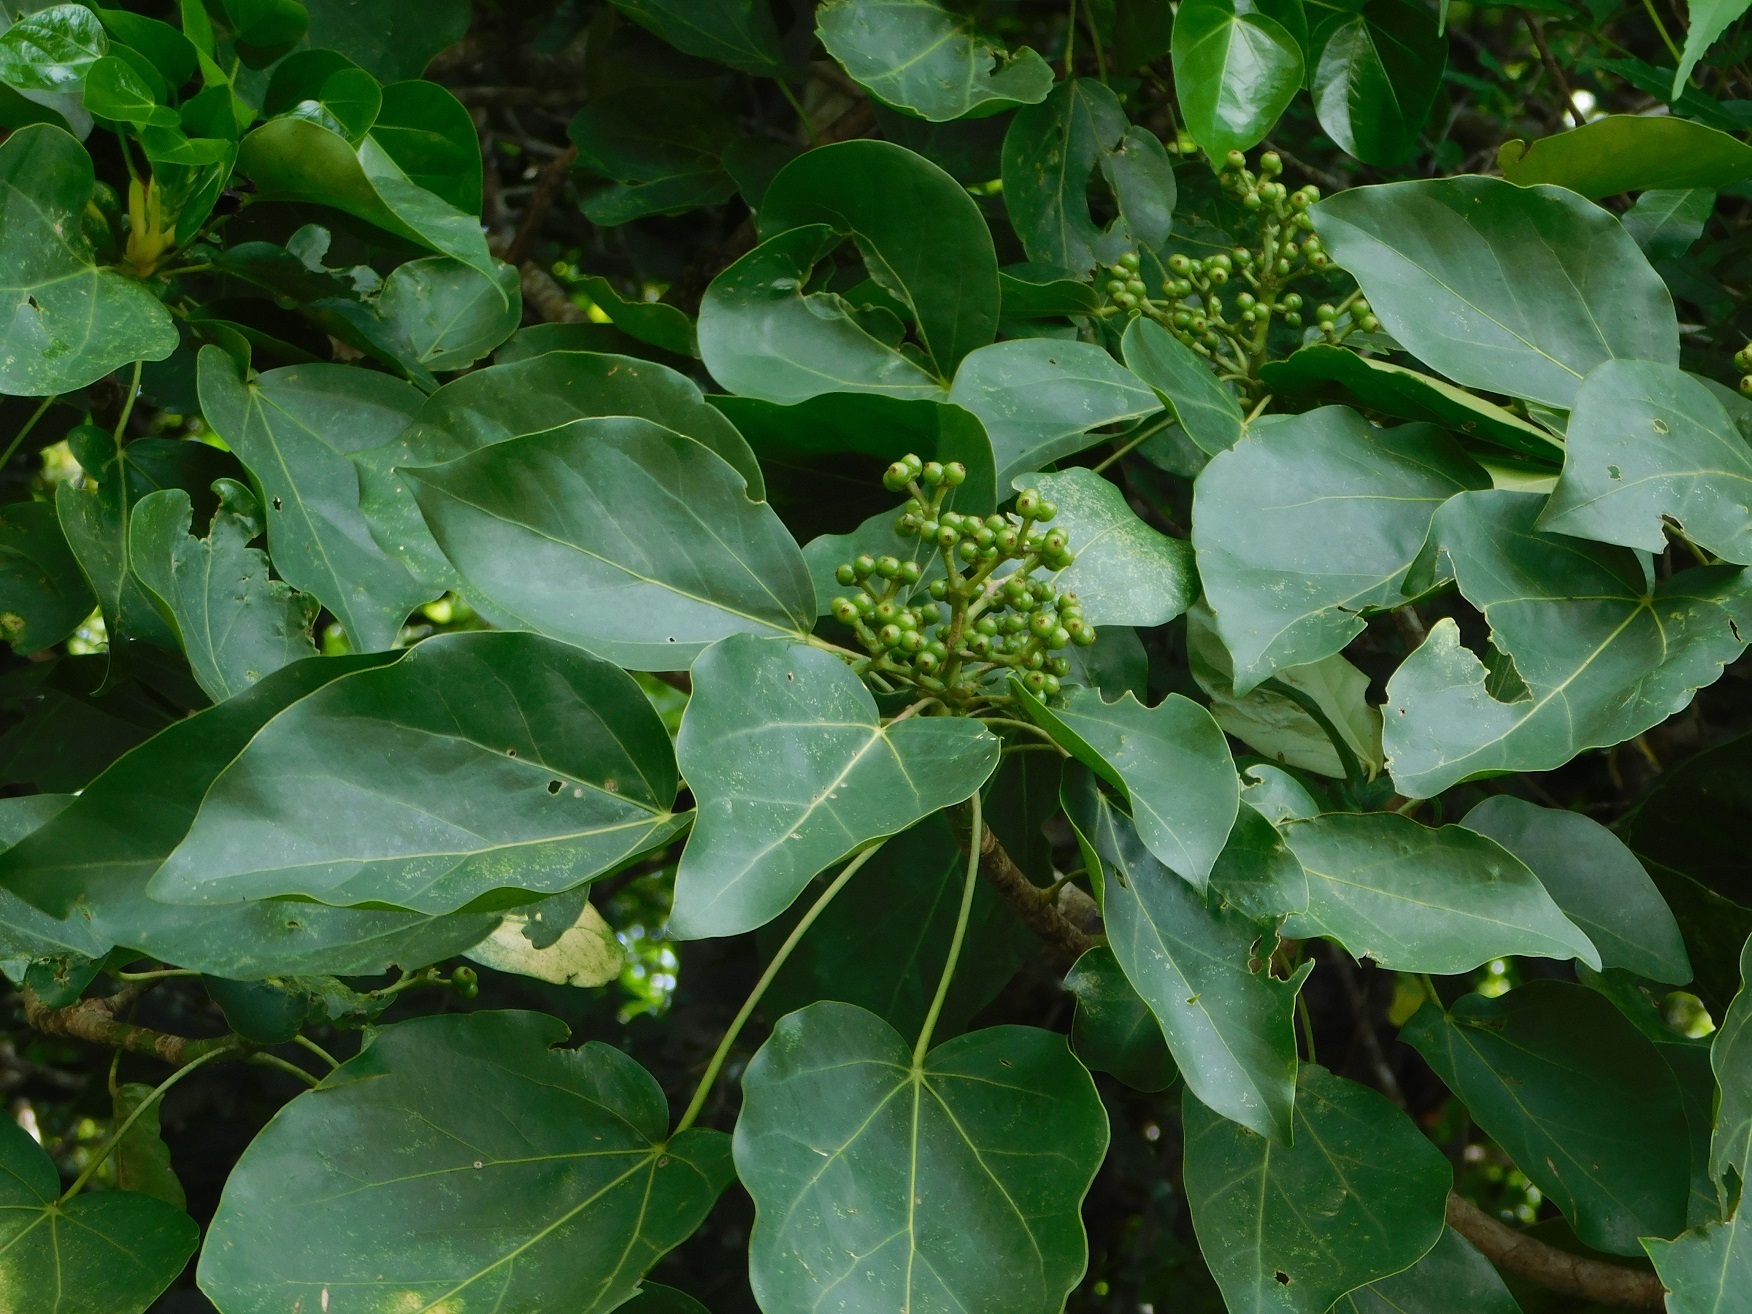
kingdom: Plantae
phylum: Tracheophyta
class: Magnoliopsida
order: Apiales
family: Araliaceae
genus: Oreopanax
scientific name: Oreopanax platyphyllus
